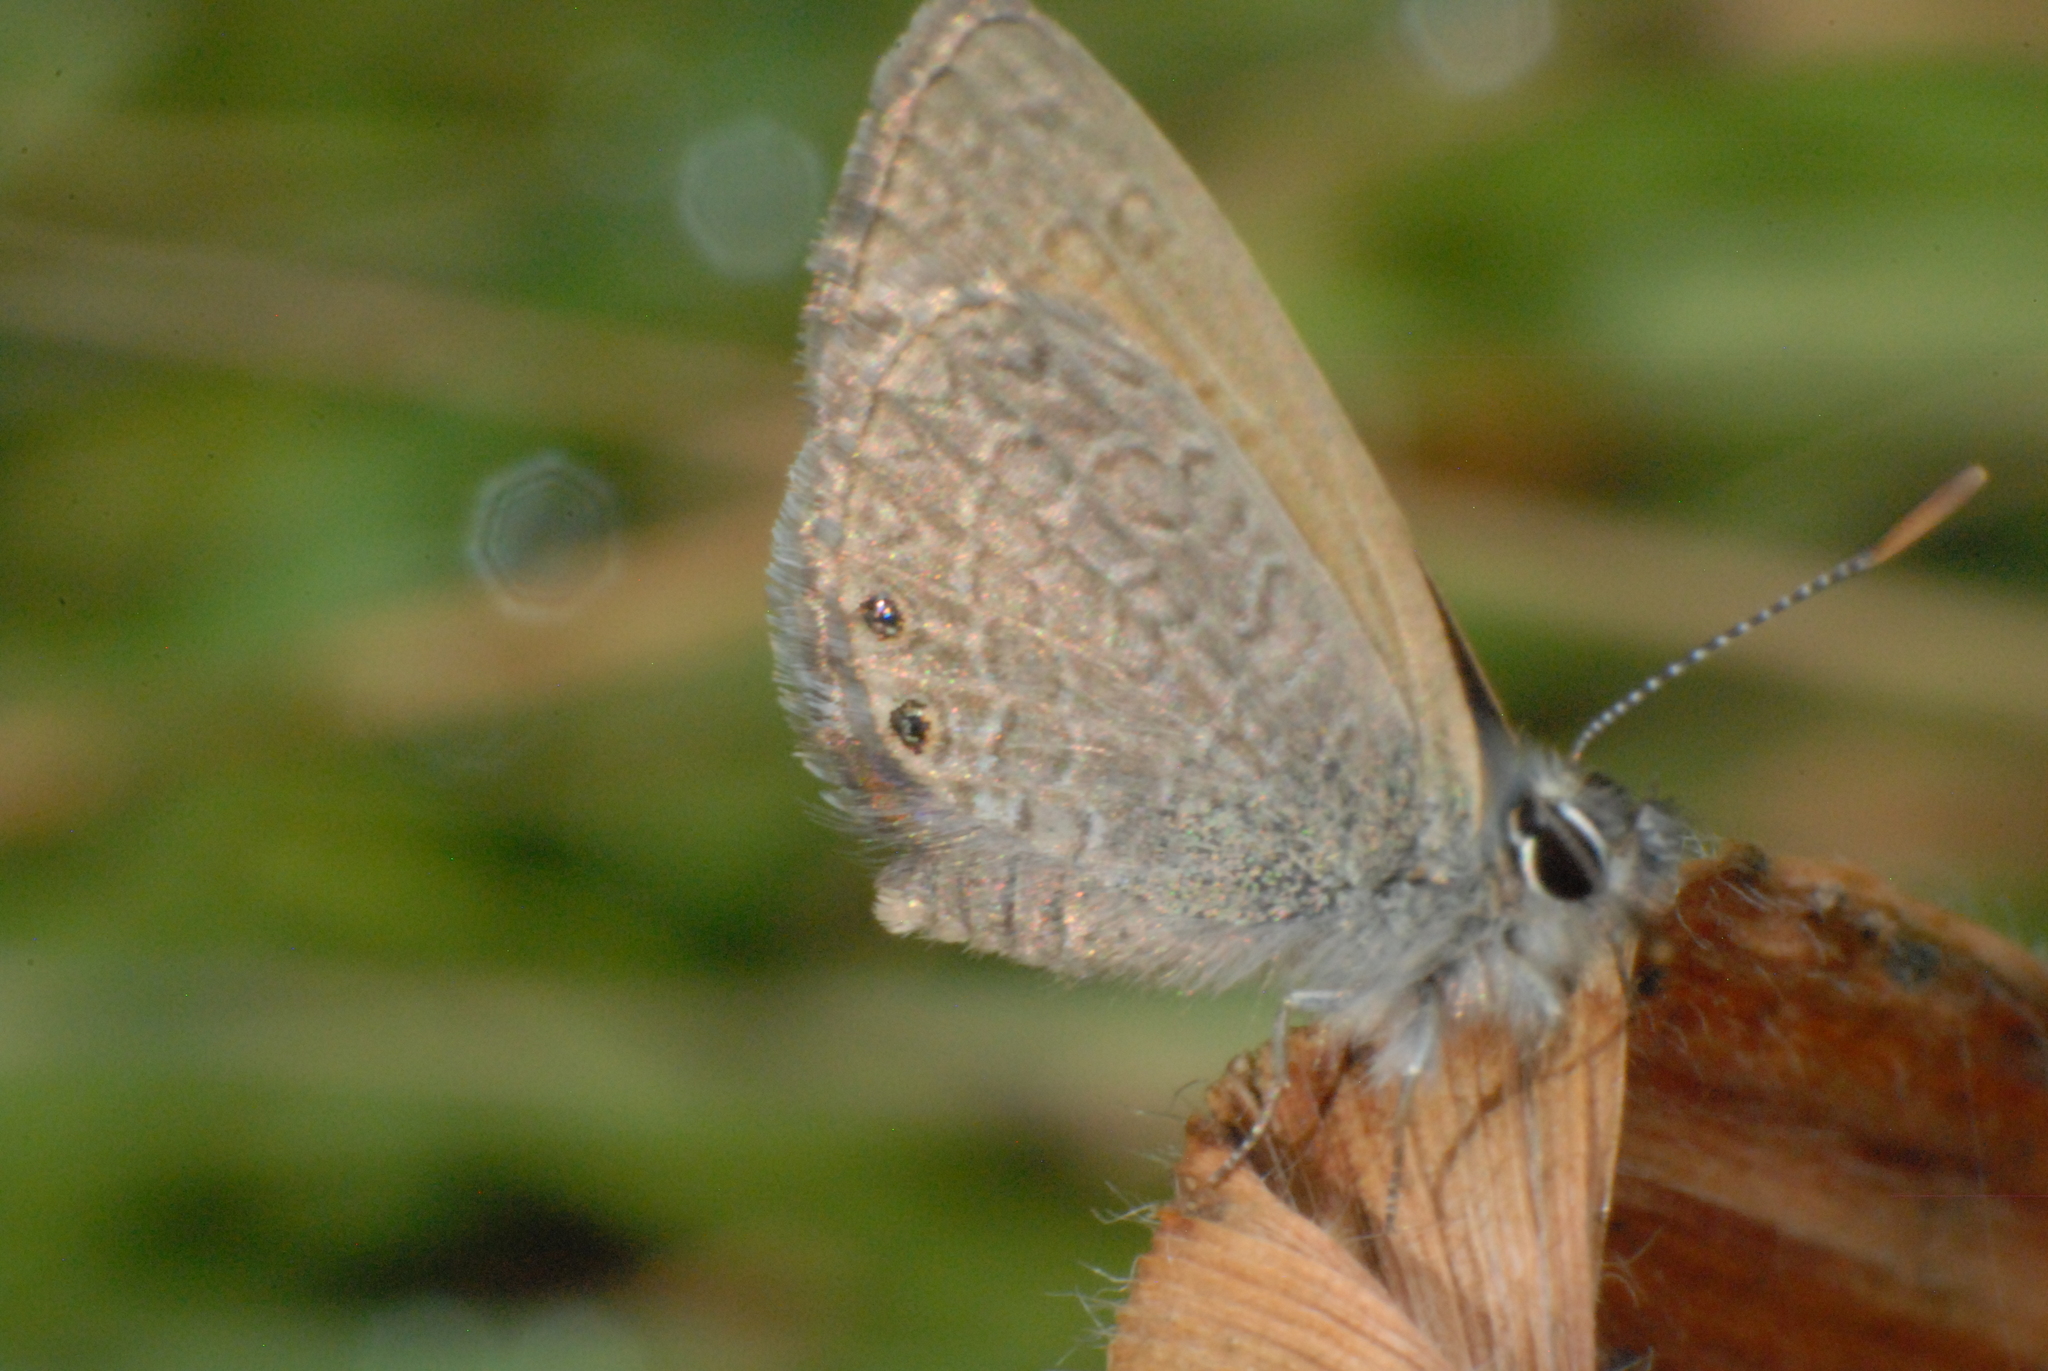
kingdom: Animalia
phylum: Arthropoda
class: Insecta
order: Lepidoptera
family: Lycaenidae
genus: Nacaduba
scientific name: Nacaduba biocellata
